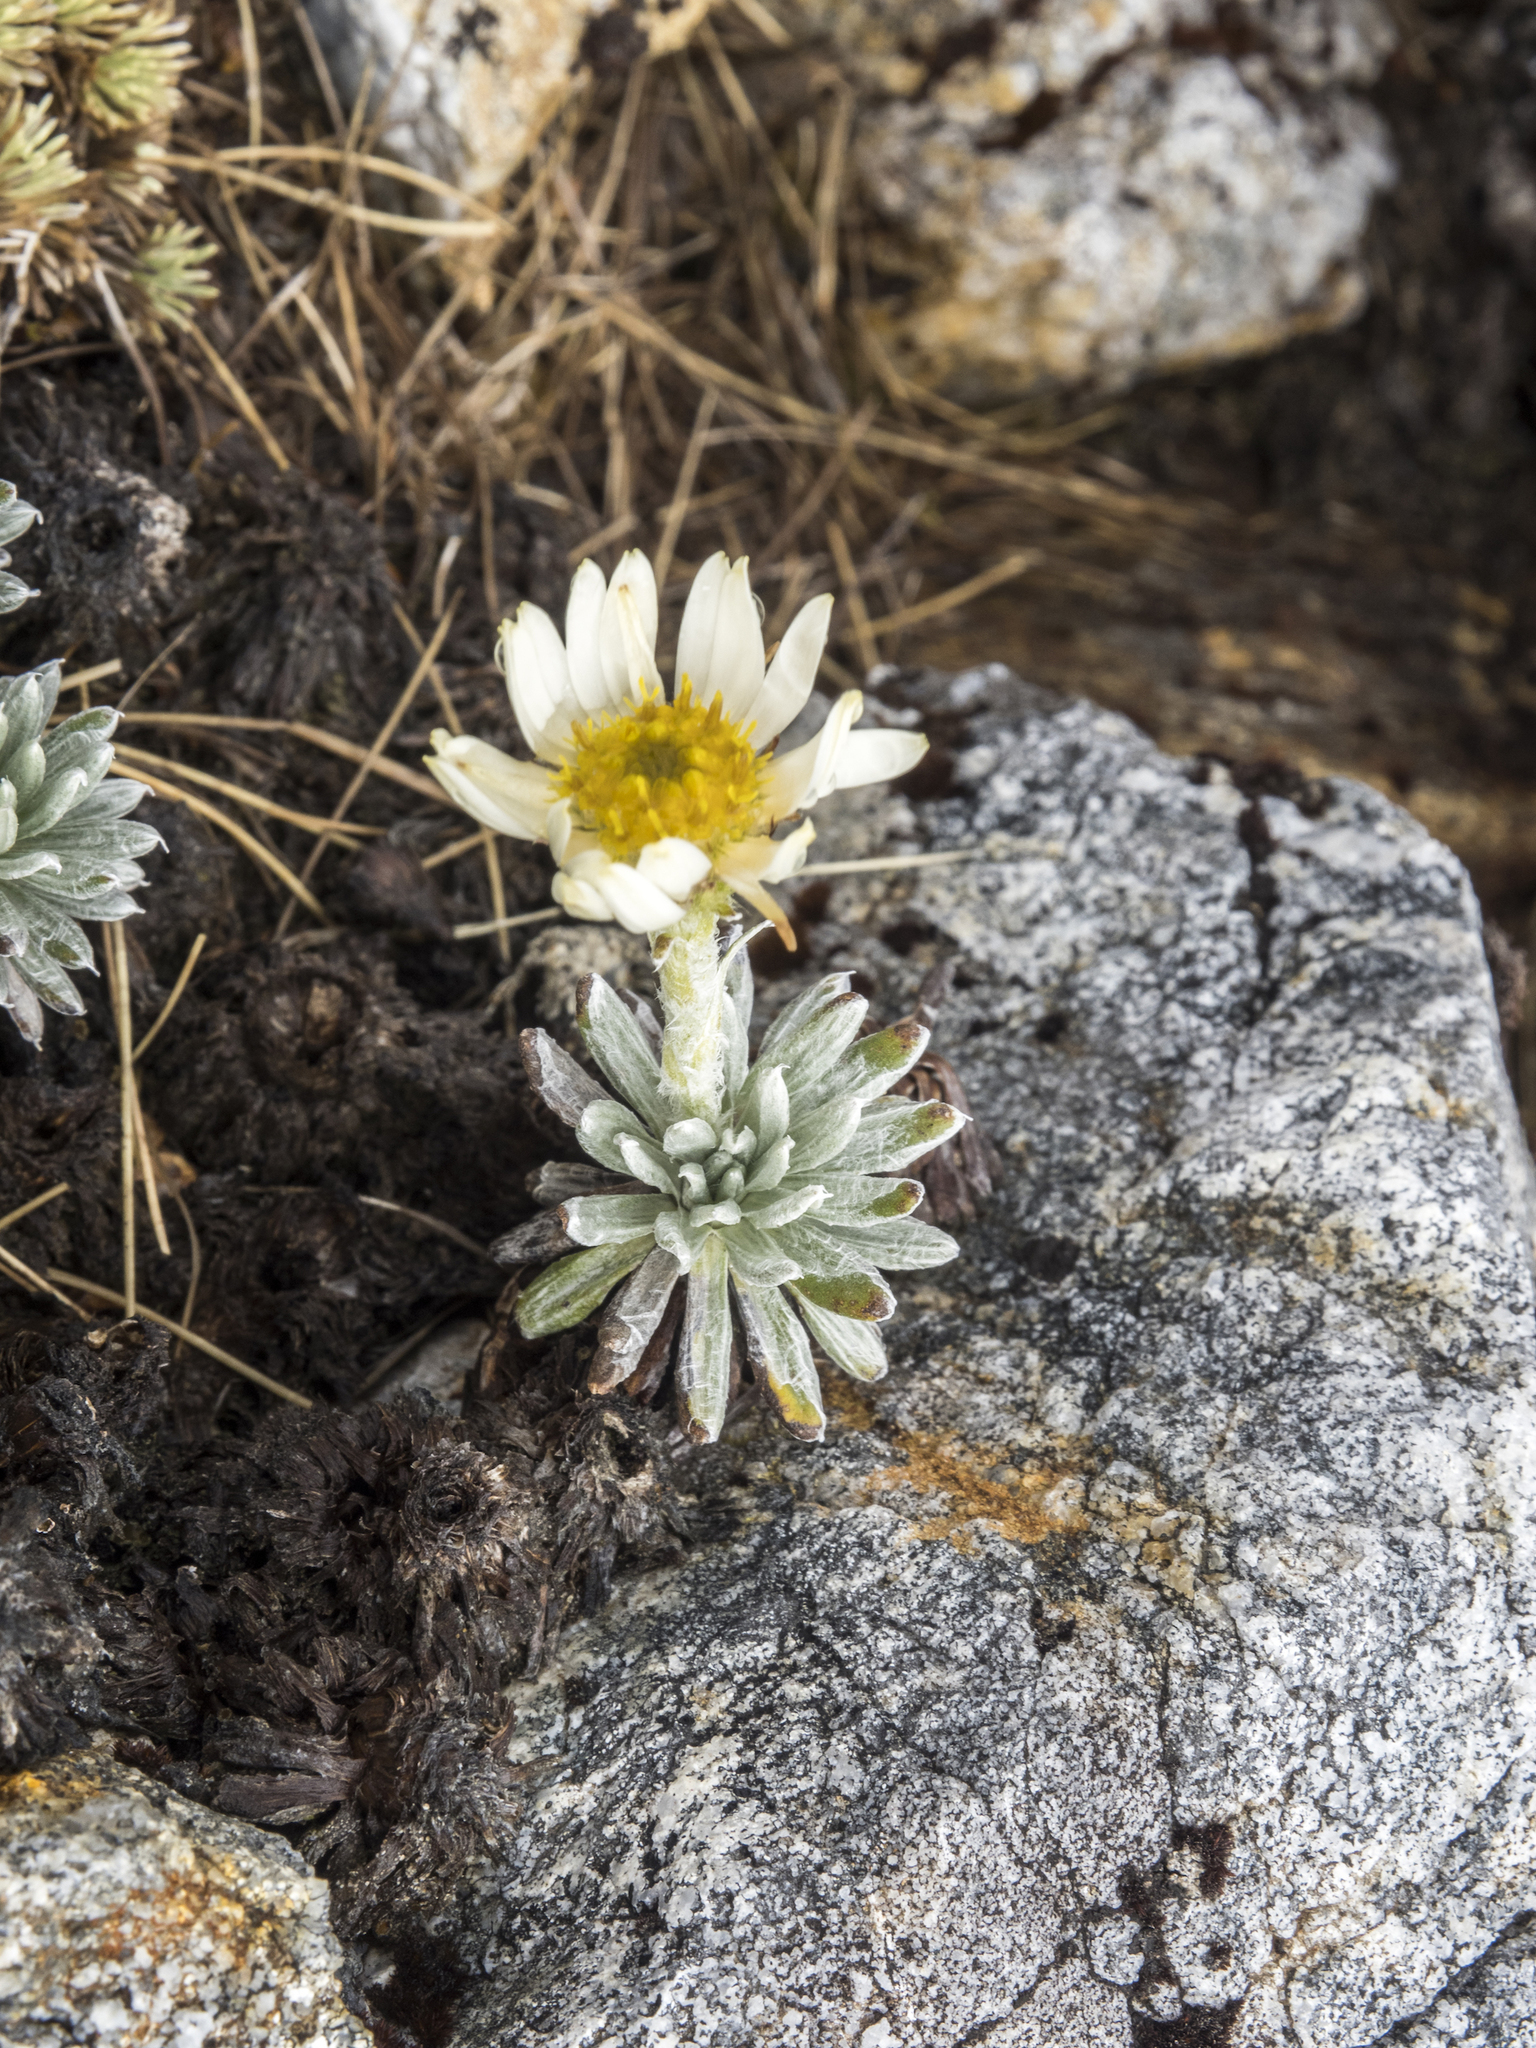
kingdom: Plantae
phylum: Tracheophyta
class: Magnoliopsida
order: Asterales
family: Asteraceae
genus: Celmisia
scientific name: Celmisia hectorii
